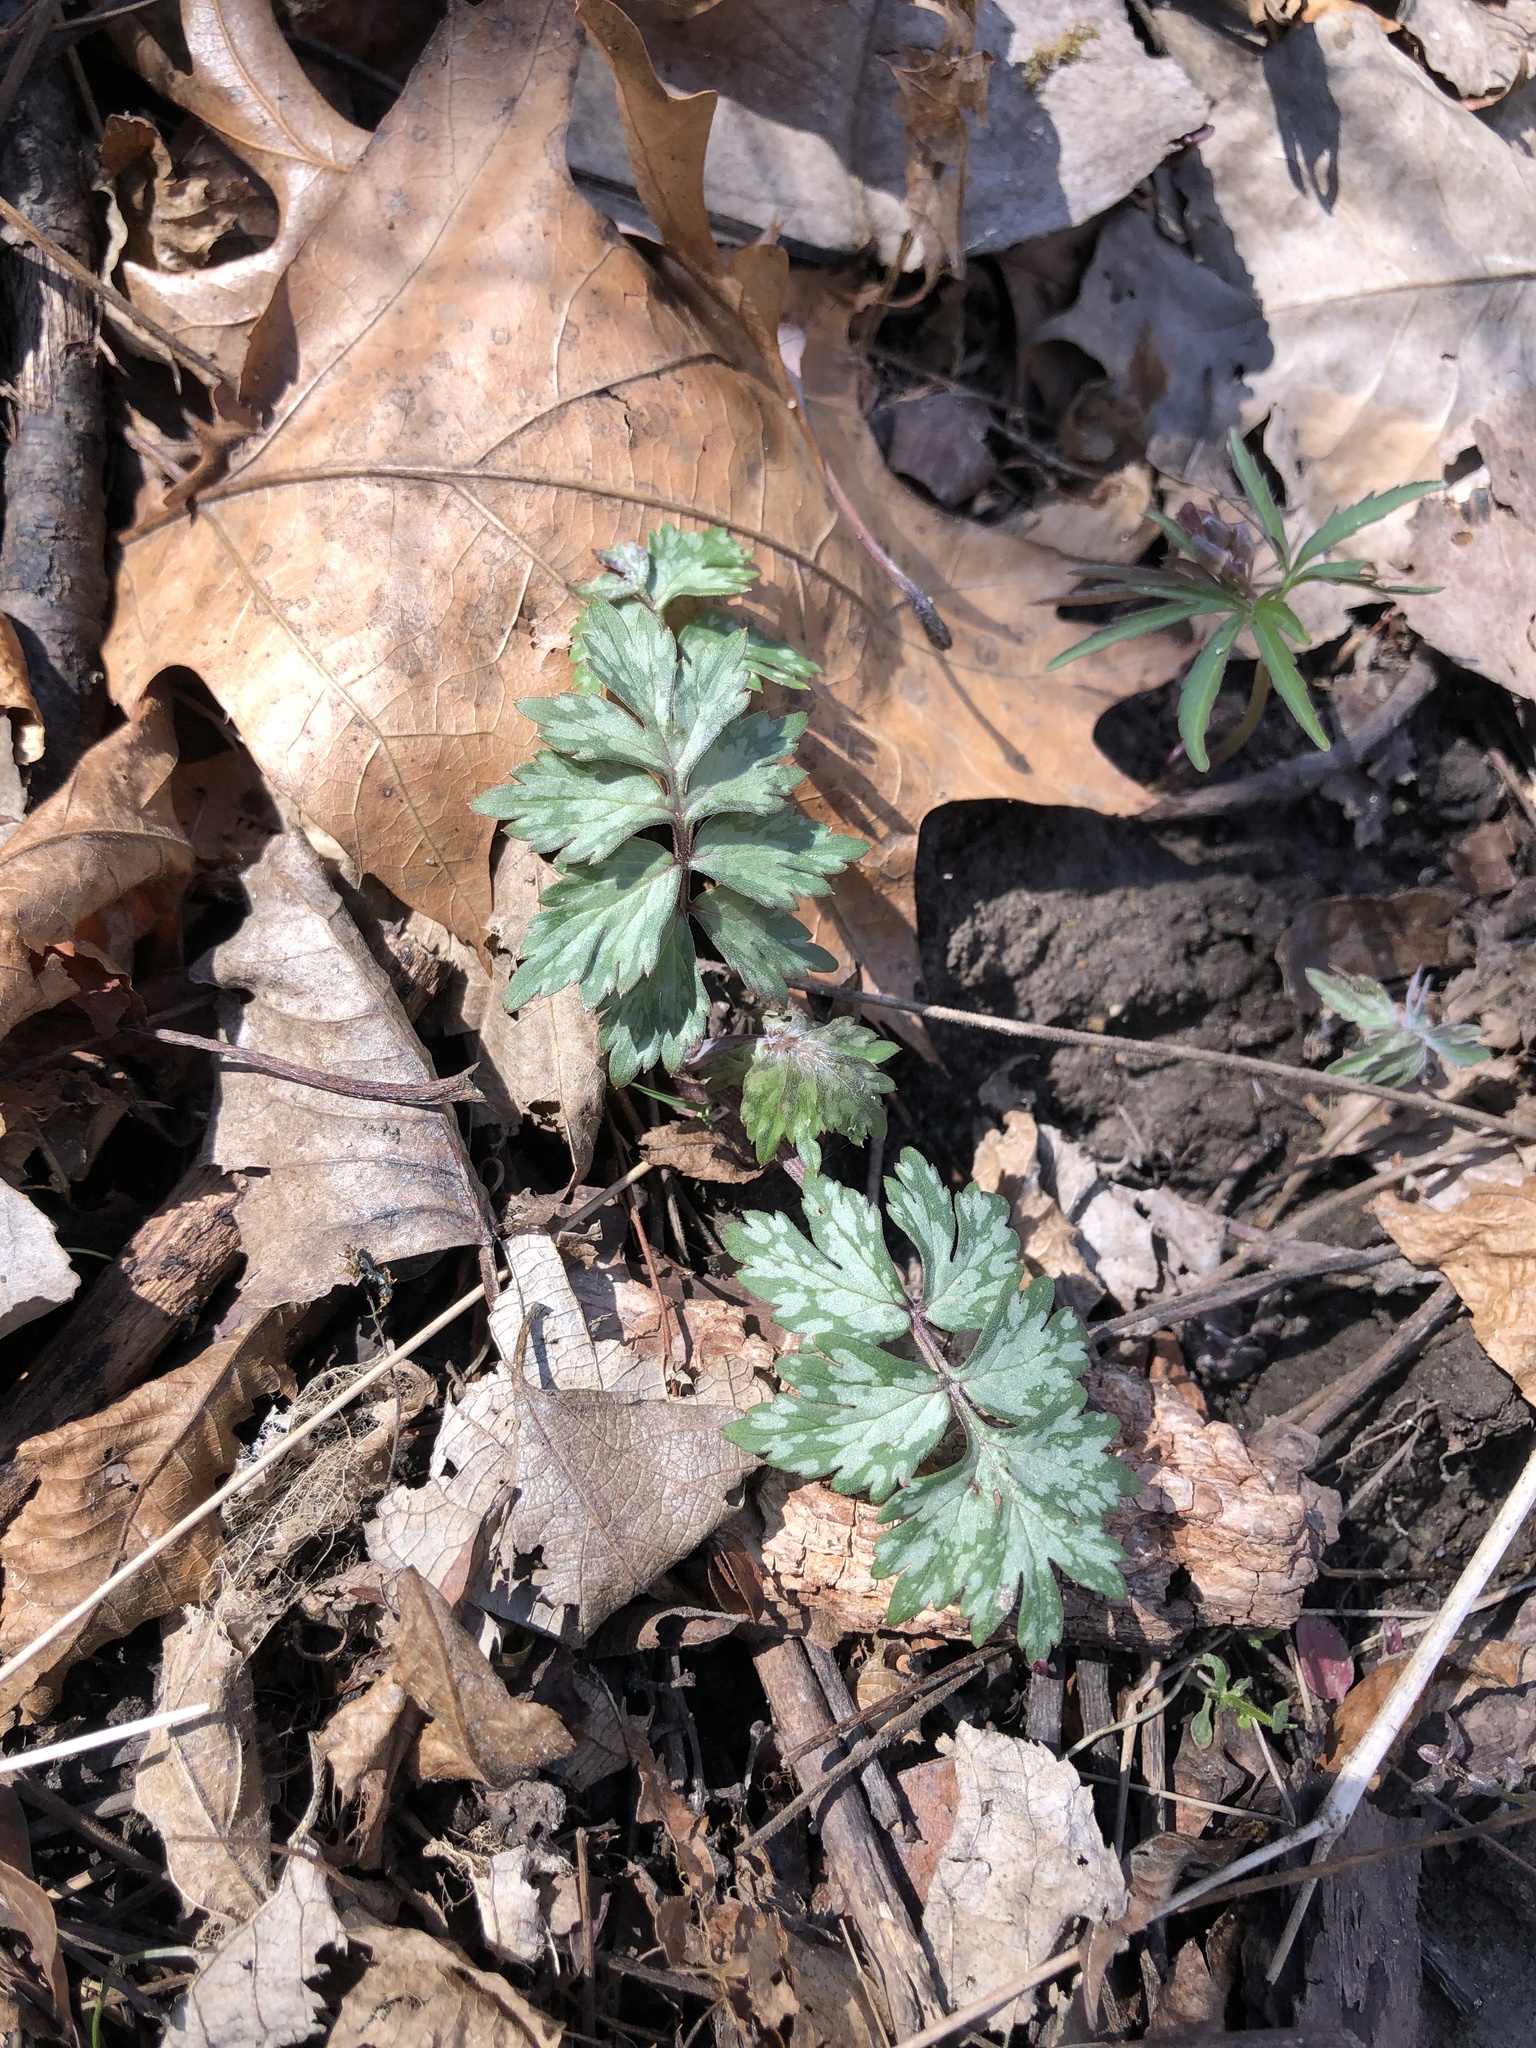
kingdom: Plantae
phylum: Tracheophyta
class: Magnoliopsida
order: Boraginales
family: Hydrophyllaceae
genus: Hydrophyllum
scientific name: Hydrophyllum virginianum
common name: Virginia waterleaf
